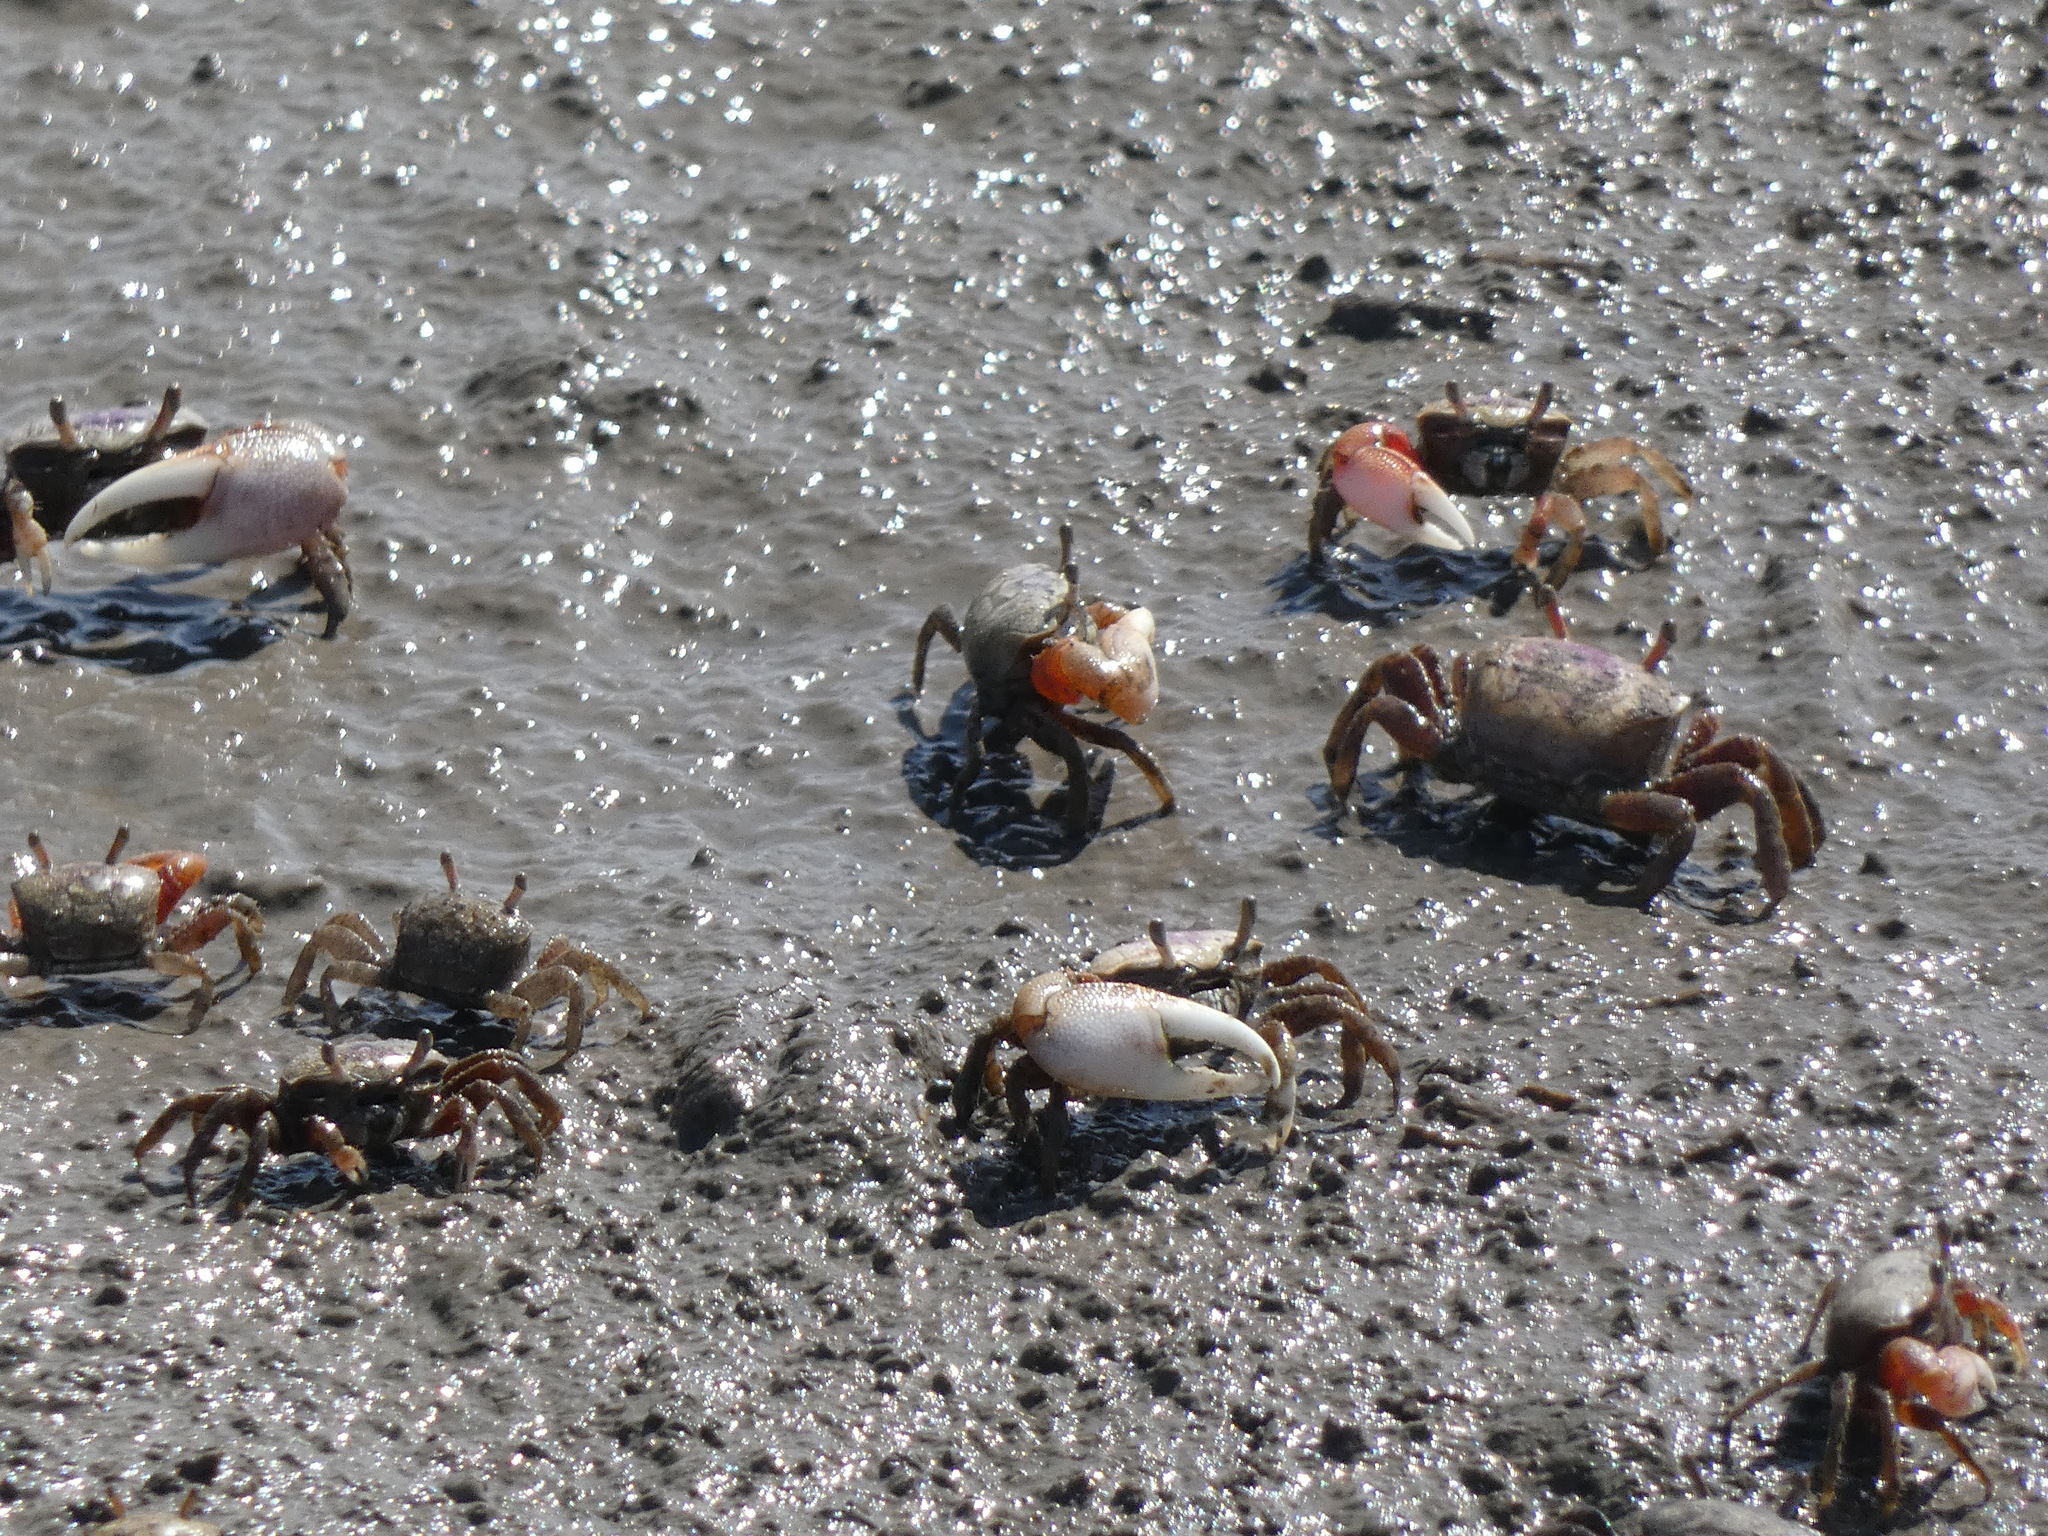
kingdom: Animalia
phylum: Arthropoda
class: Malacostraca
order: Decapoda
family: Ocypodidae
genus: Leptuca
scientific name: Leptuca pugilator
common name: Atlantic sand fiddler crab
